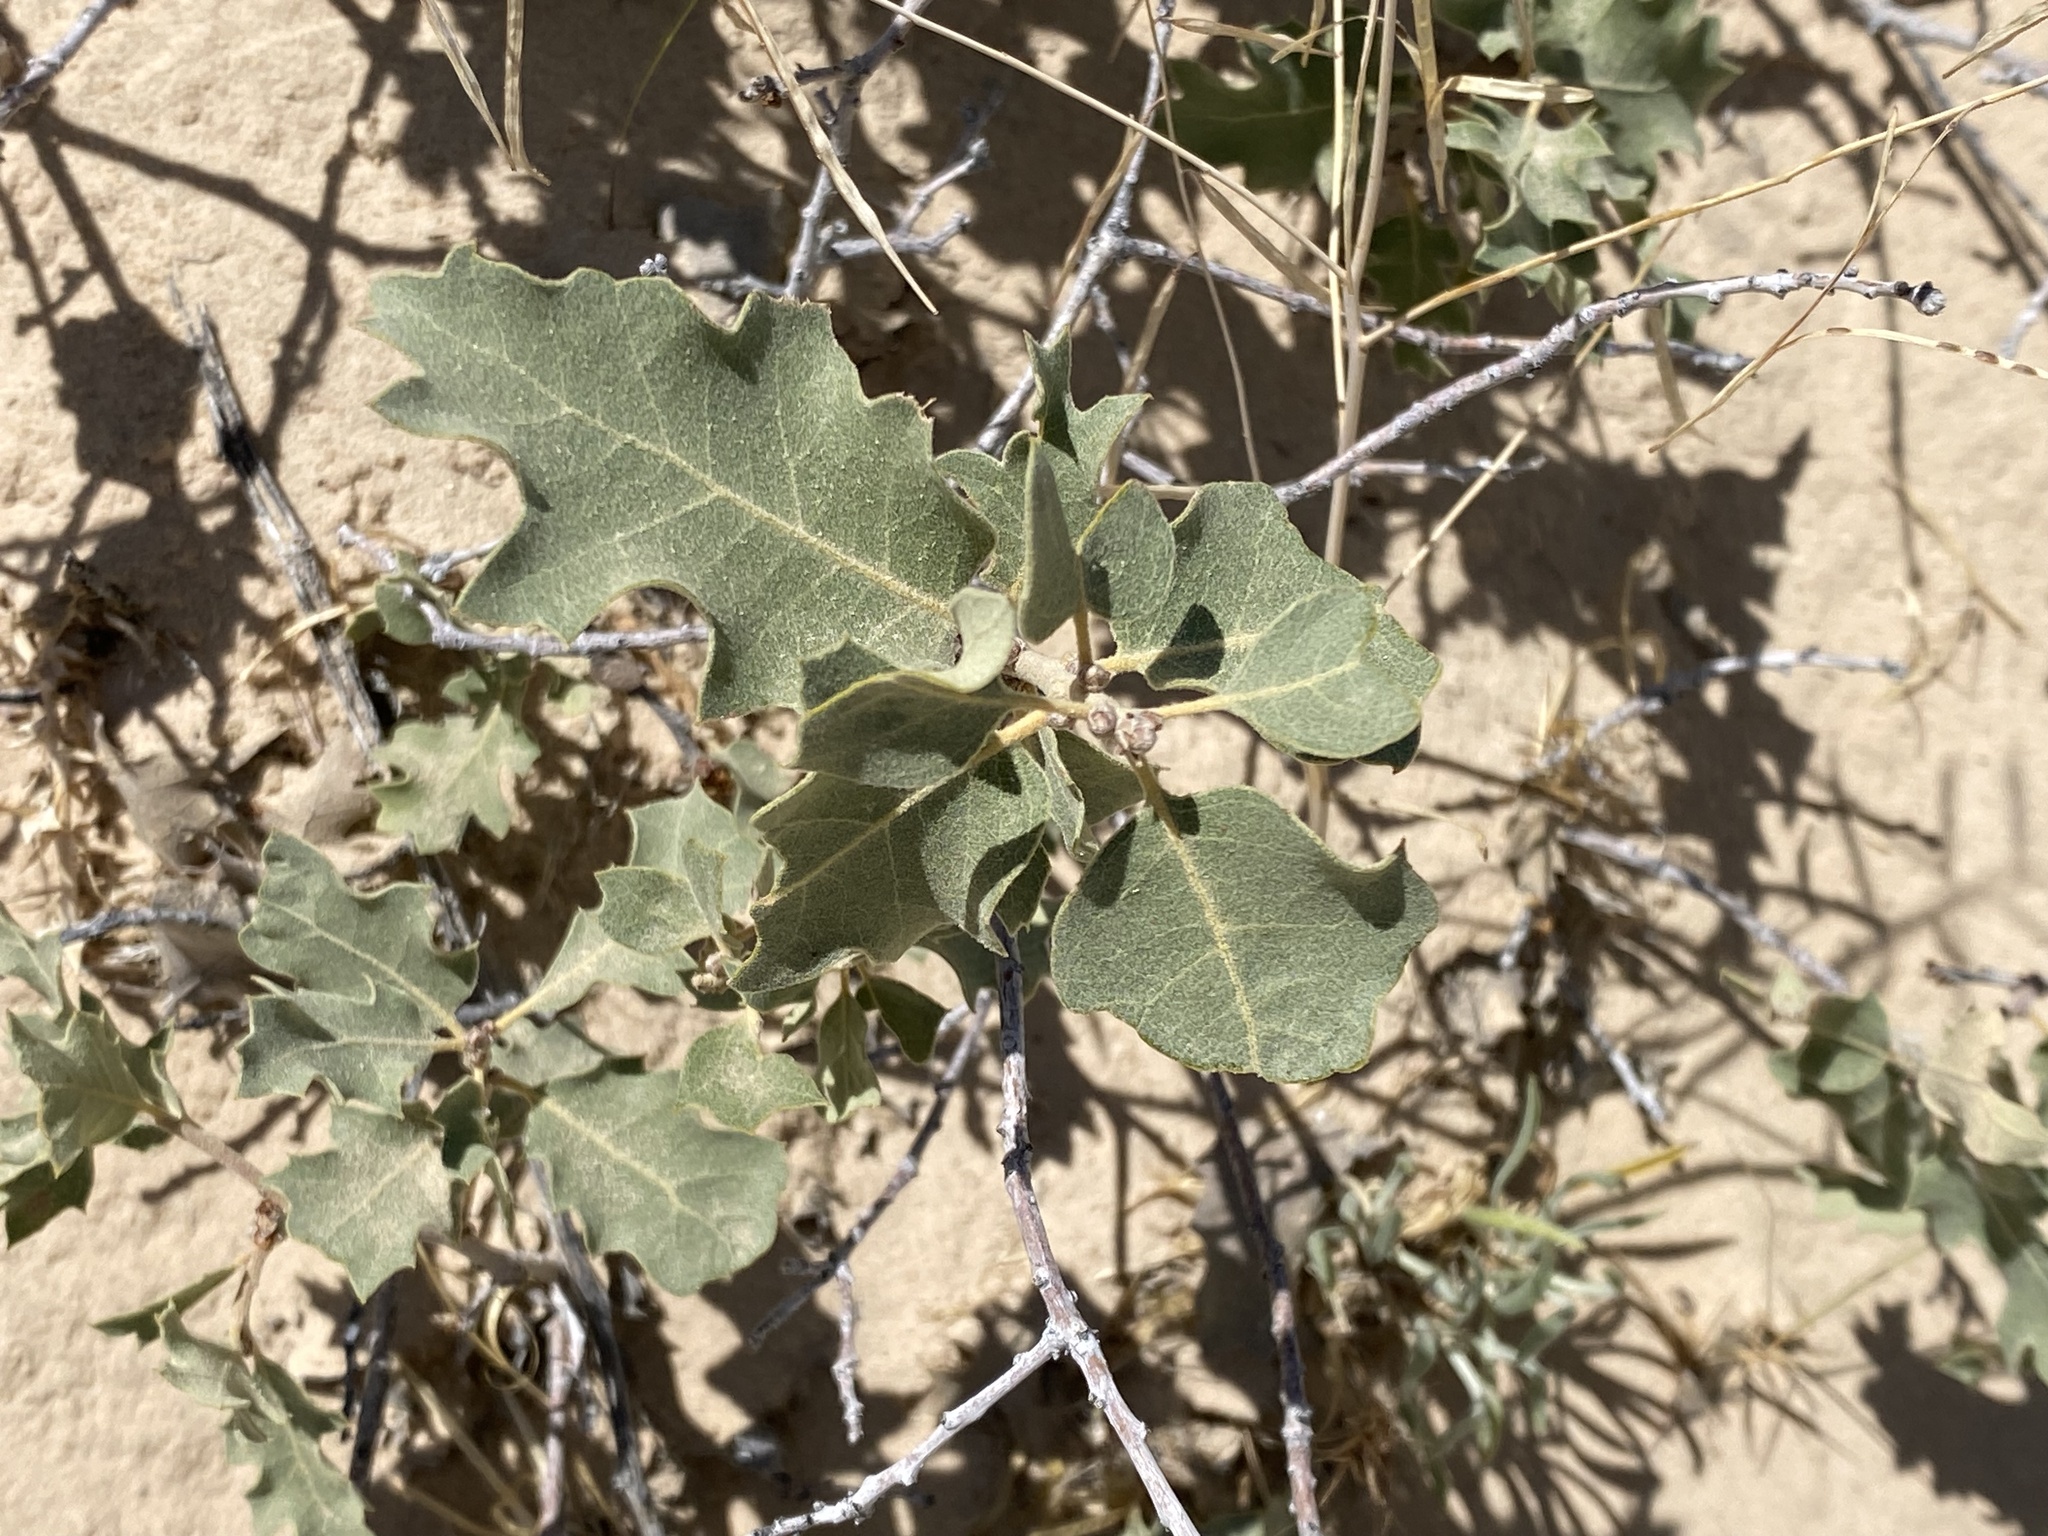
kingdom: Plantae
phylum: Tracheophyta
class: Magnoliopsida
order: Fagales
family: Fagaceae
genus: Quercus
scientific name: Quercus welshii
